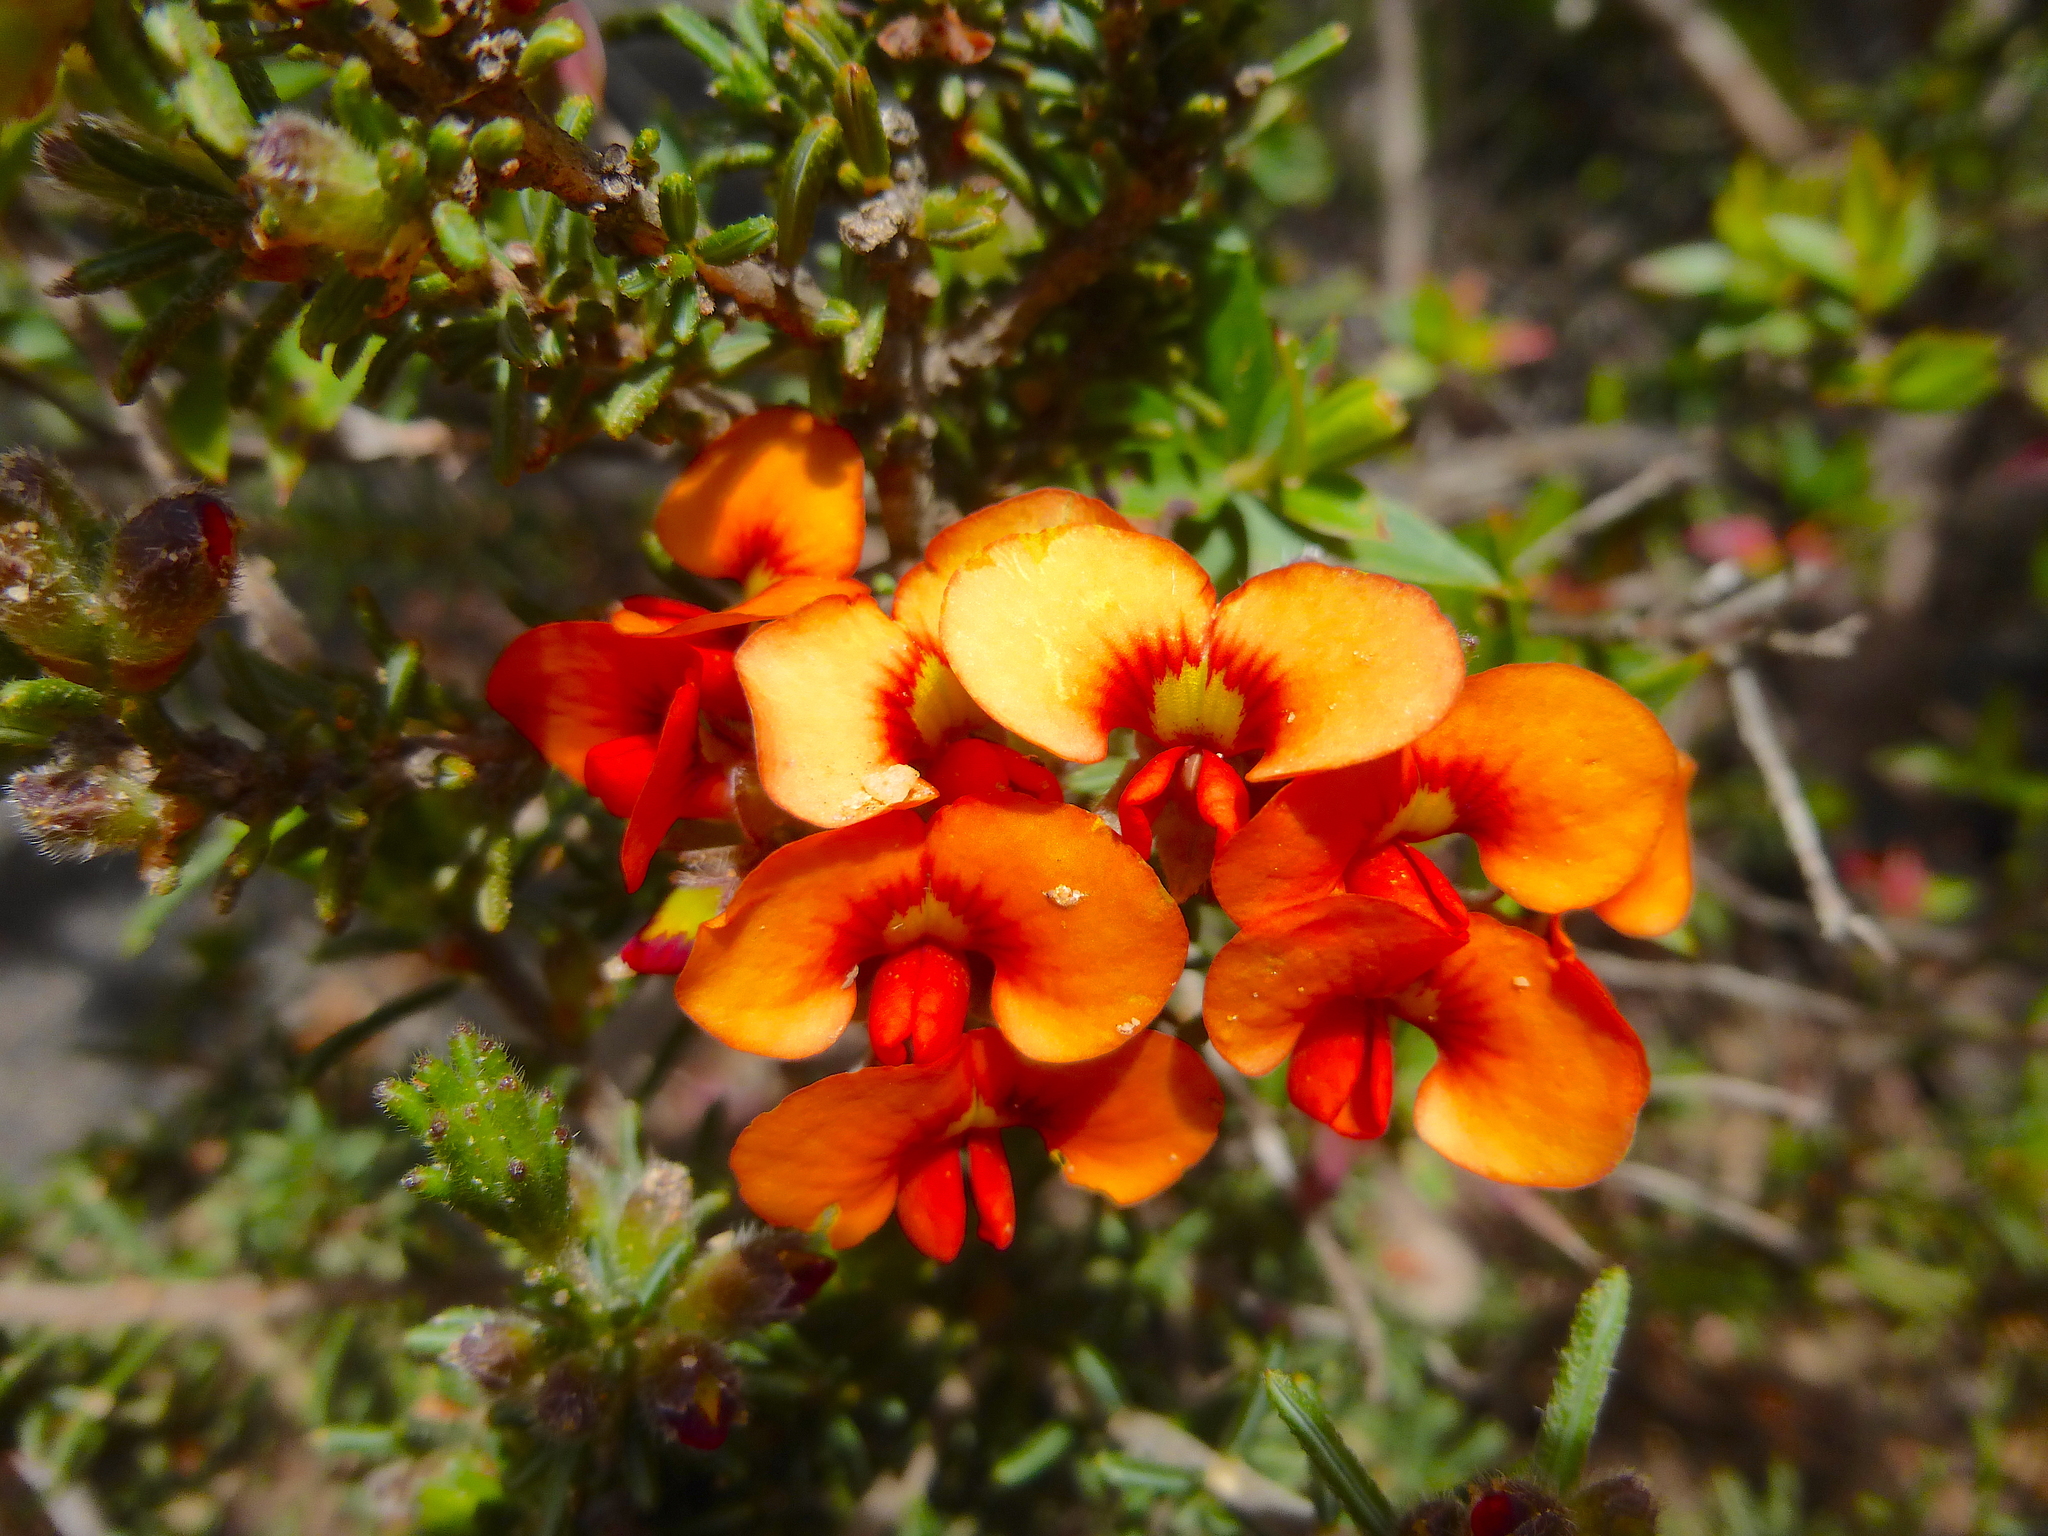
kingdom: Plantae
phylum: Tracheophyta
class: Magnoliopsida
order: Fabales
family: Fabaceae
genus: Dillwynia
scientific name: Dillwynia sericea
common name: Showy parrot-pea
